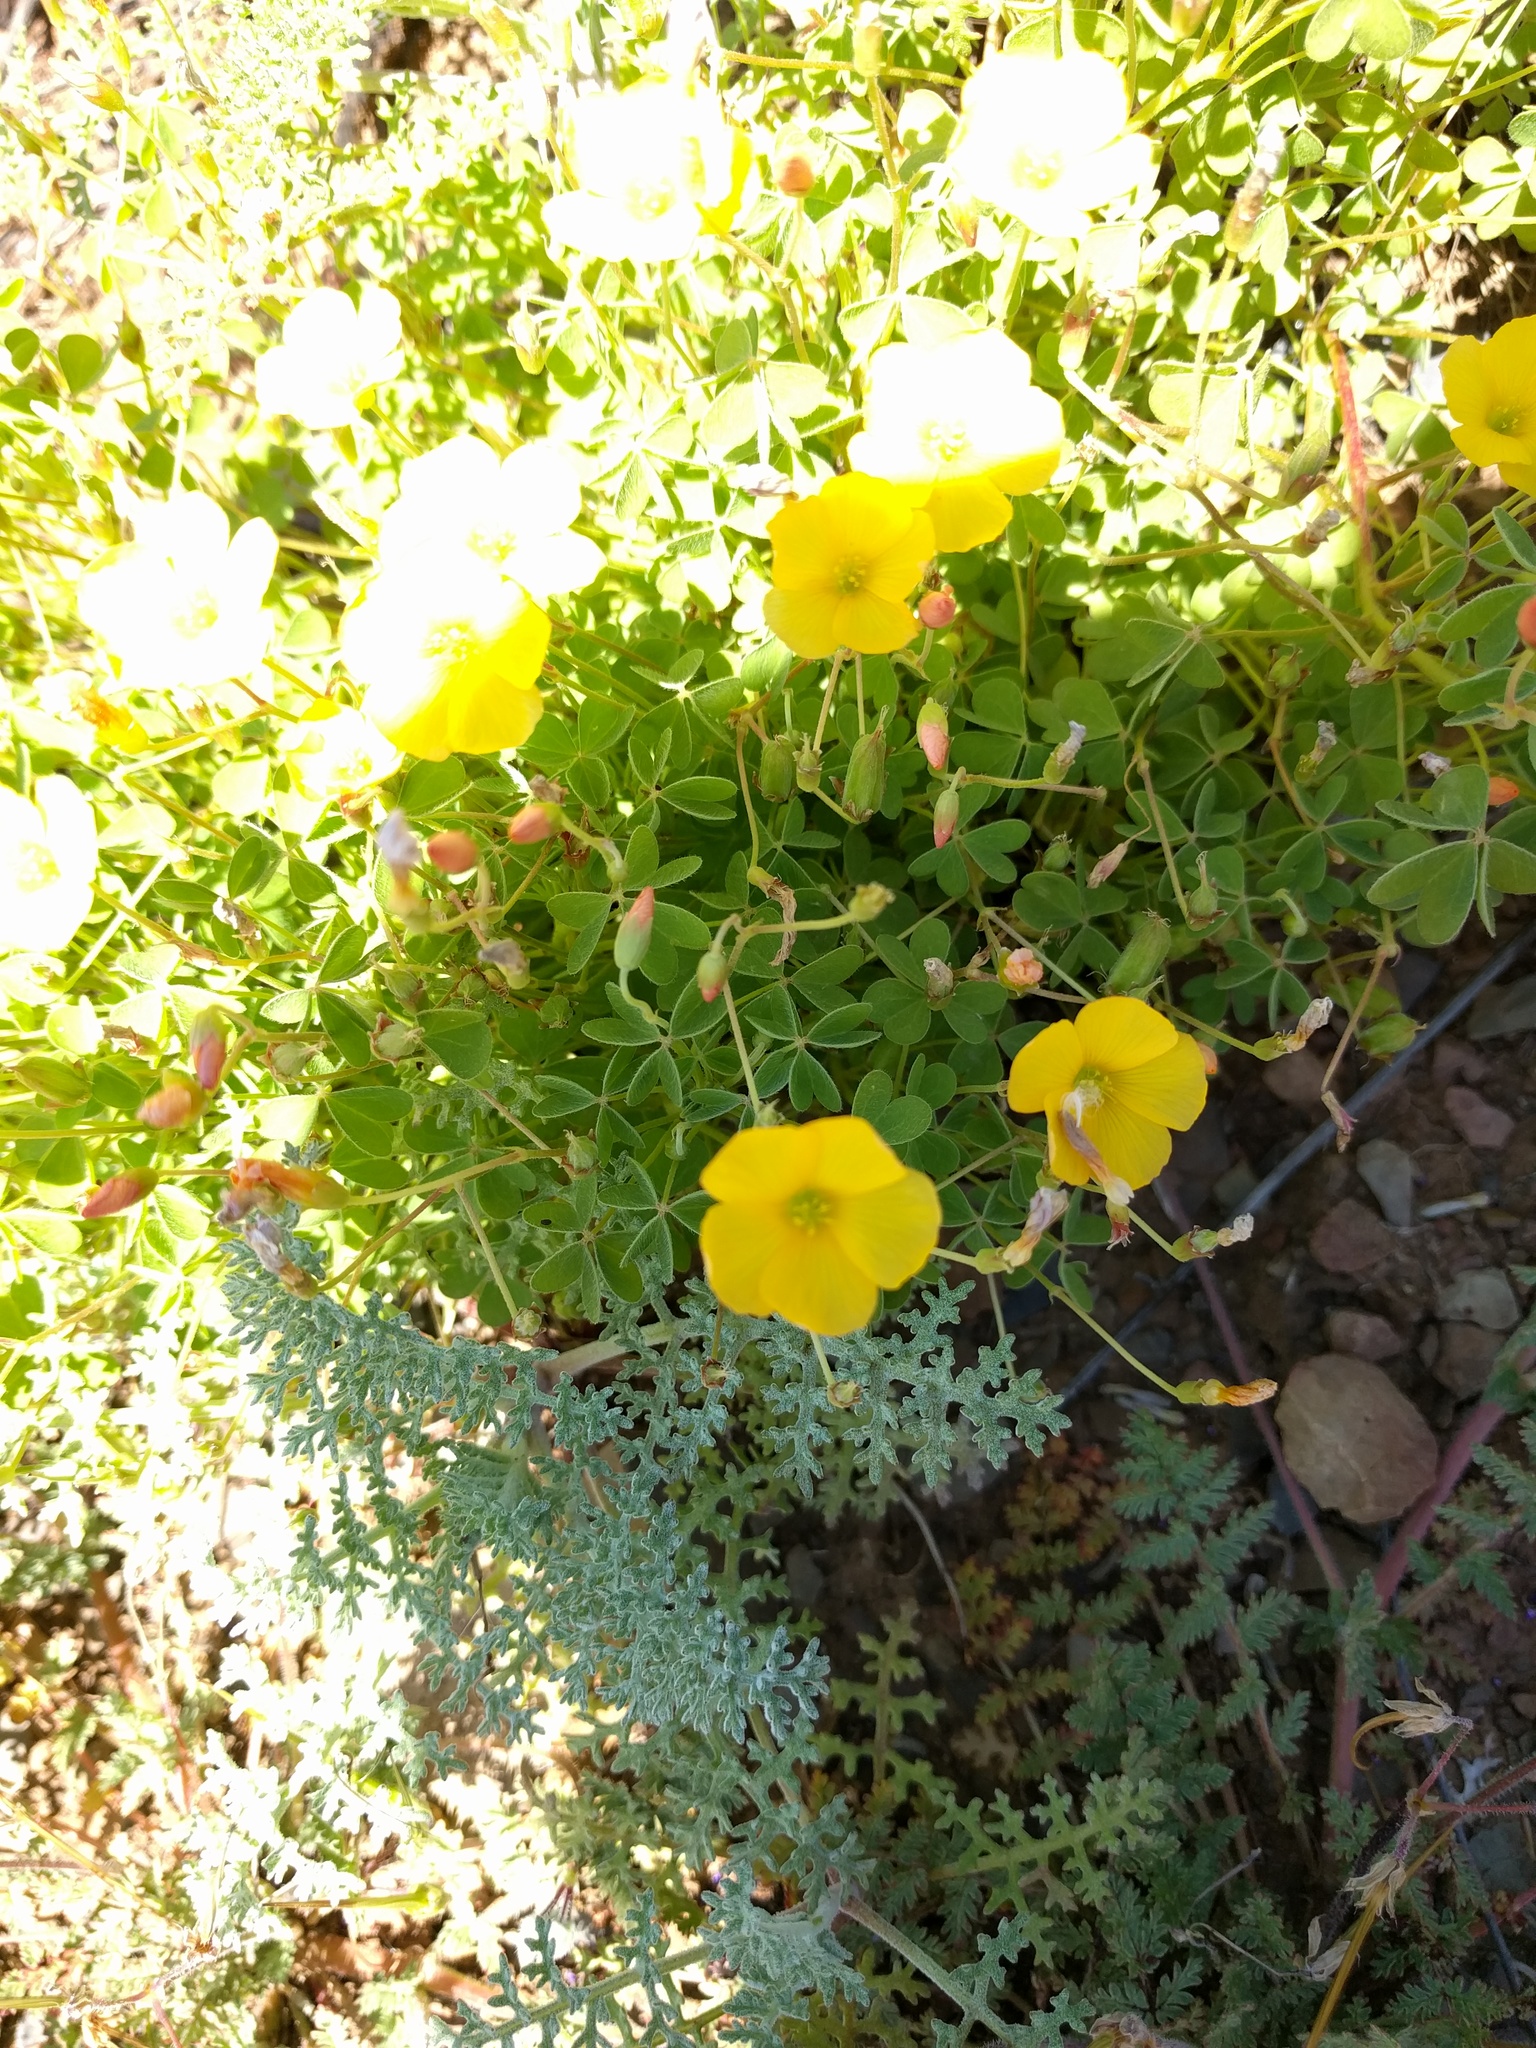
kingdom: Plantae
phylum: Tracheophyta
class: Magnoliopsida
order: Oxalidales
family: Oxalidaceae
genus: Oxalis
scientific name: Oxalis californica
